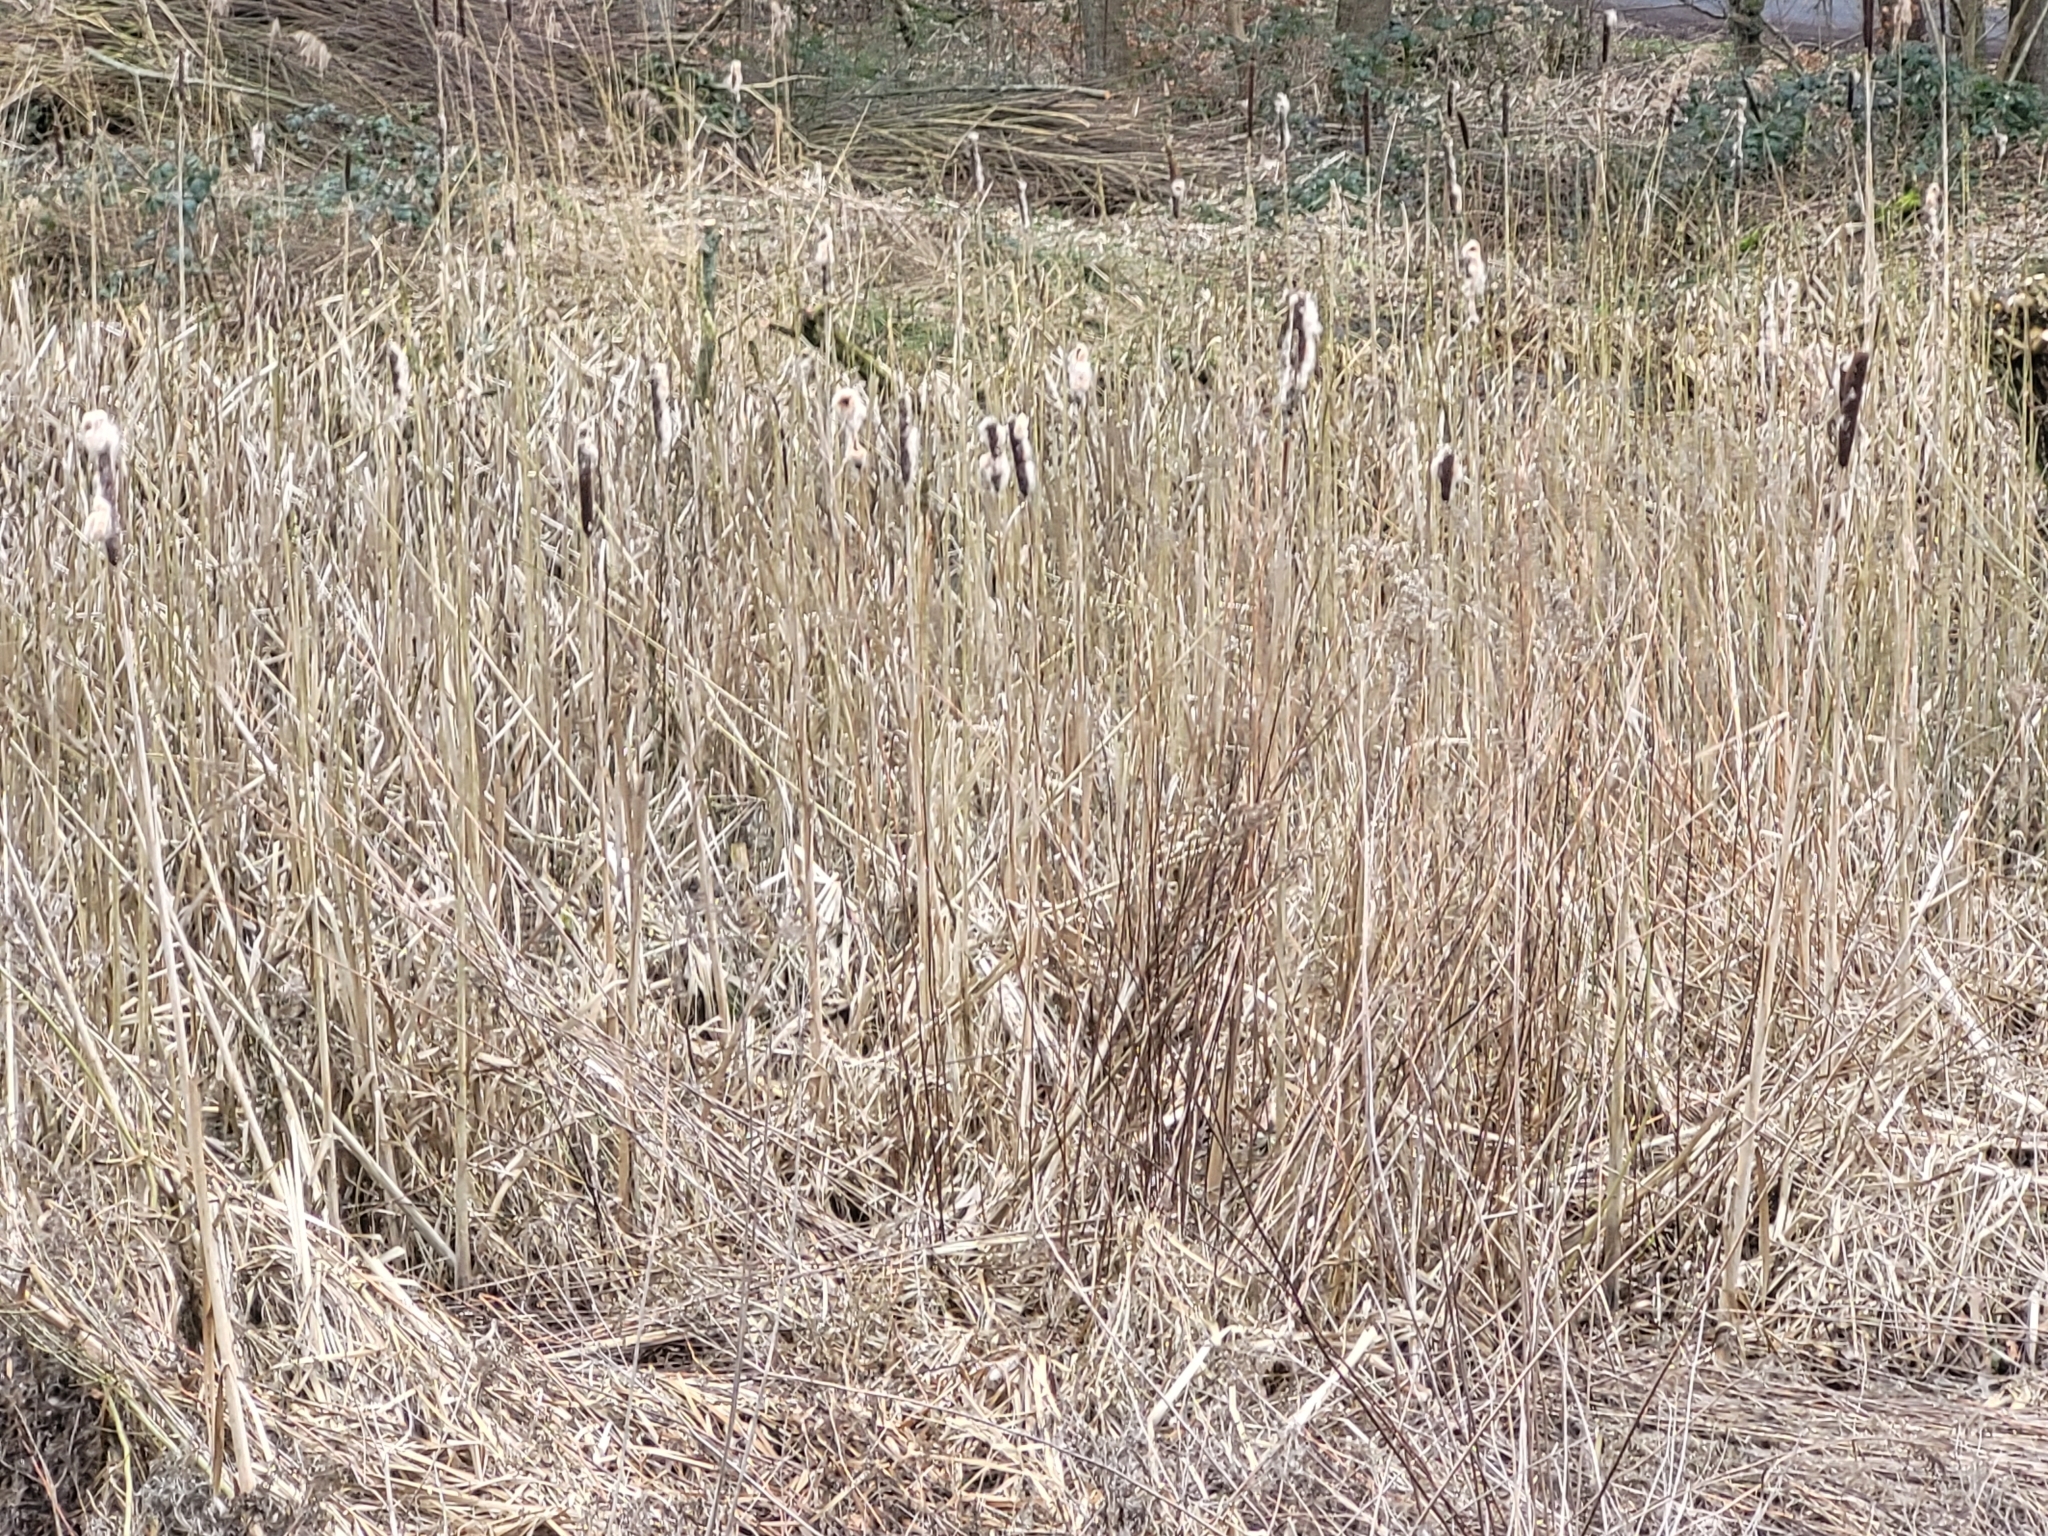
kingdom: Plantae
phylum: Tracheophyta
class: Liliopsida
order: Poales
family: Typhaceae
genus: Typha
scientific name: Typha latifolia
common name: Broadleaf cattail
